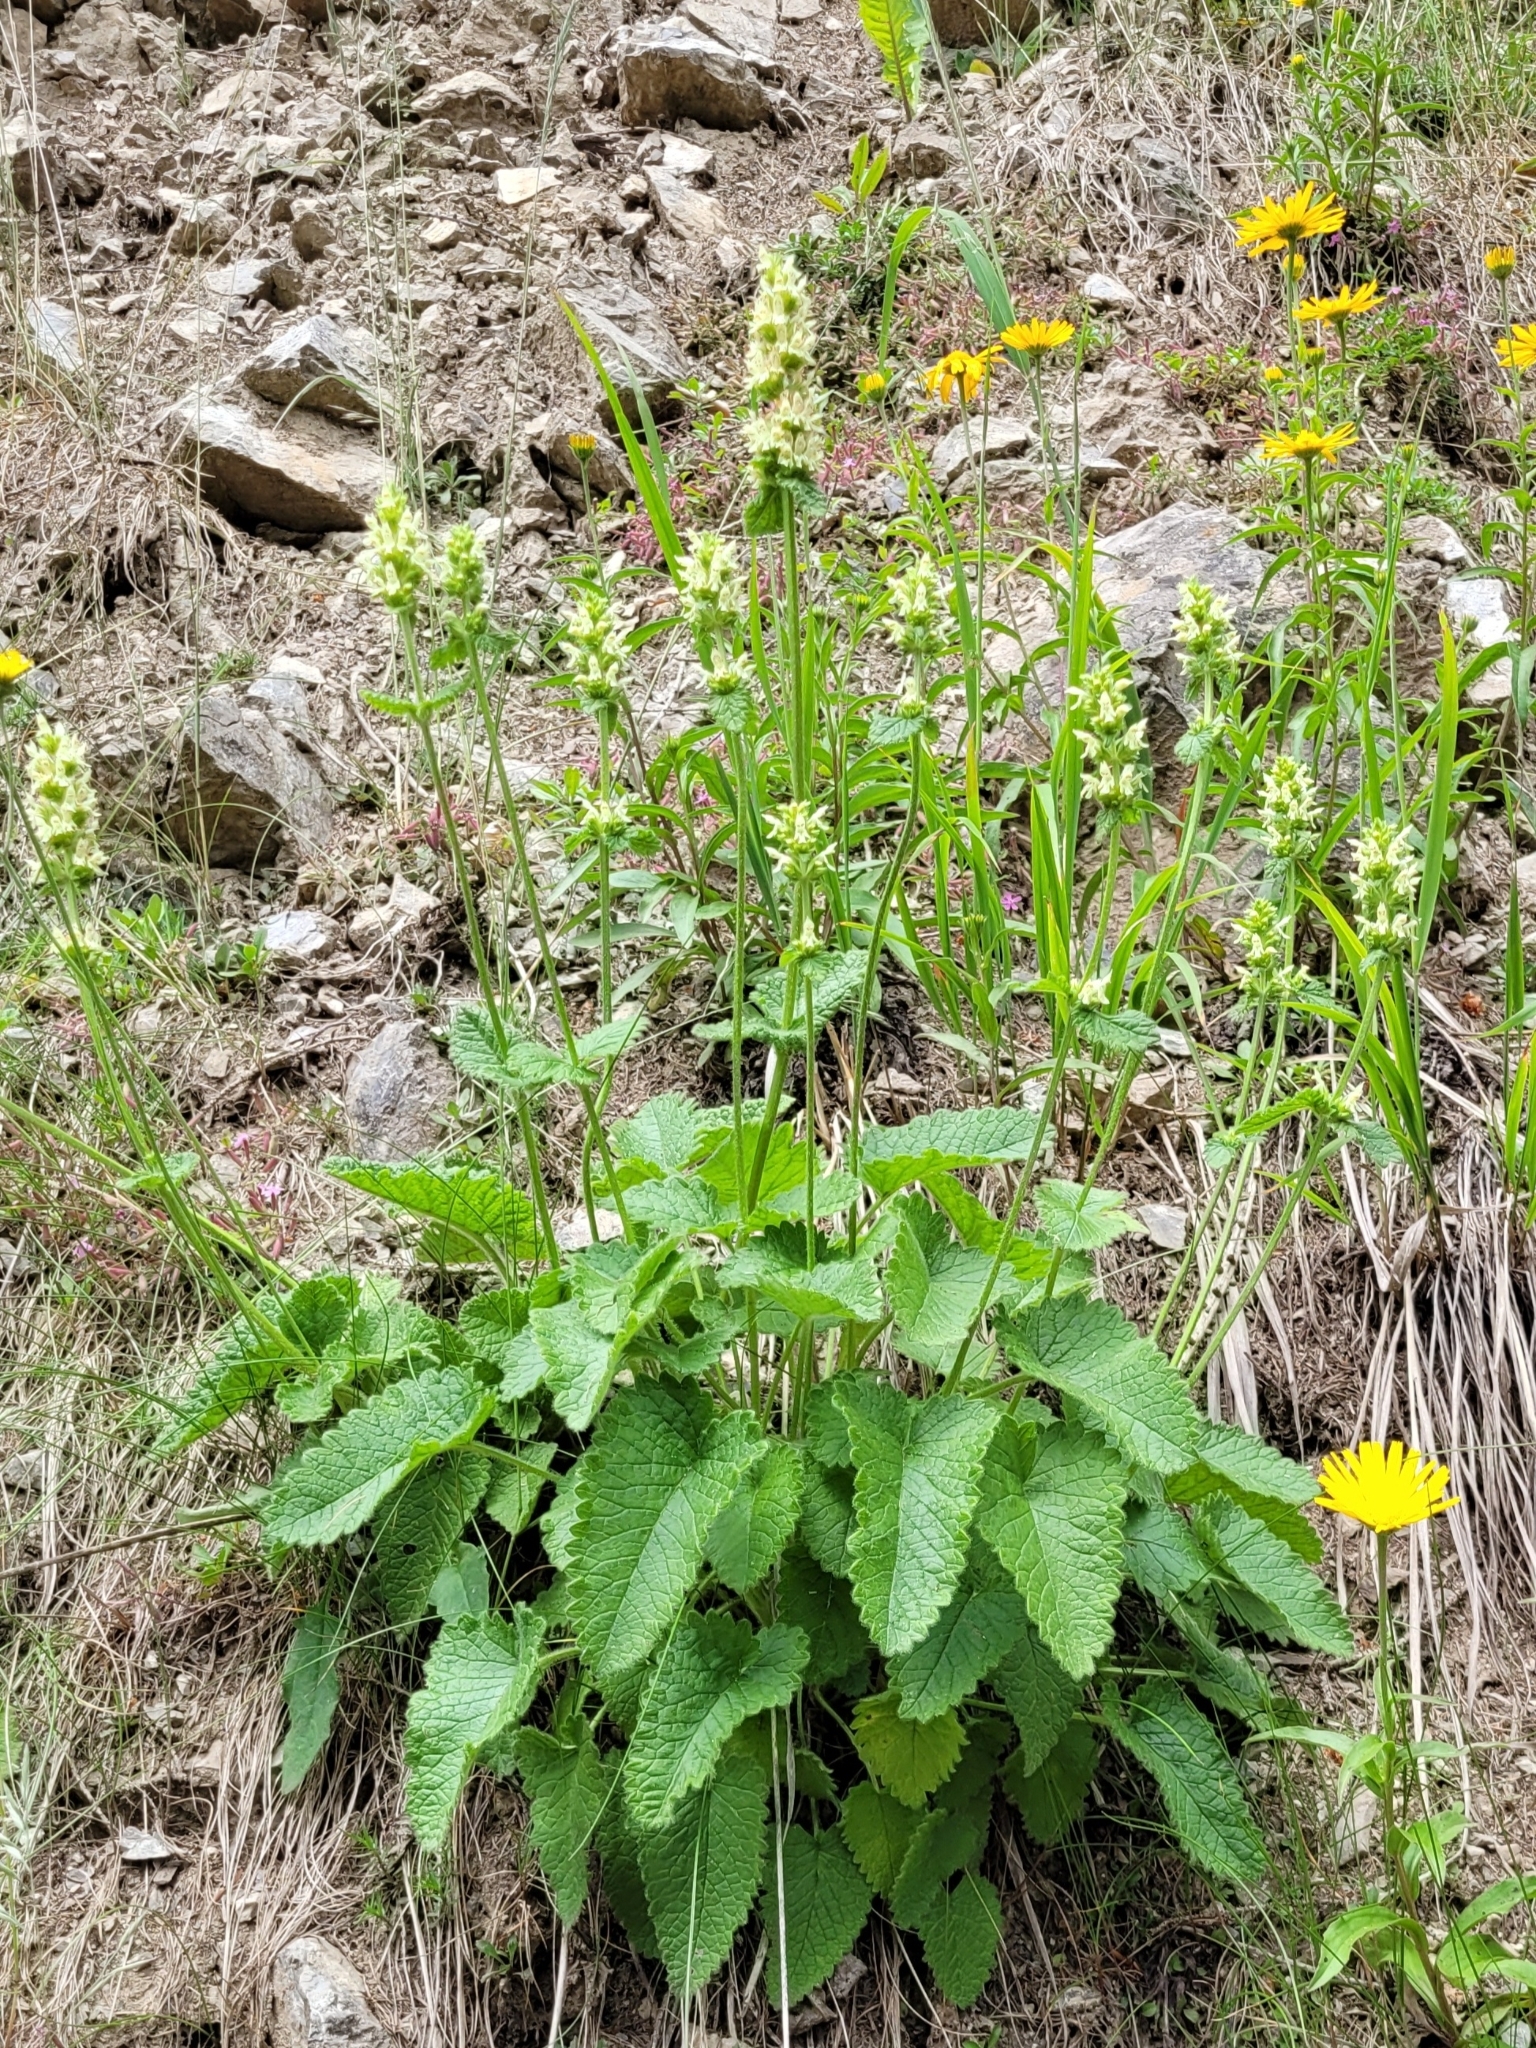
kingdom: Plantae
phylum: Tracheophyta
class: Magnoliopsida
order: Lamiales
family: Lamiaceae
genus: Betonica
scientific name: Betonica alopecuros
